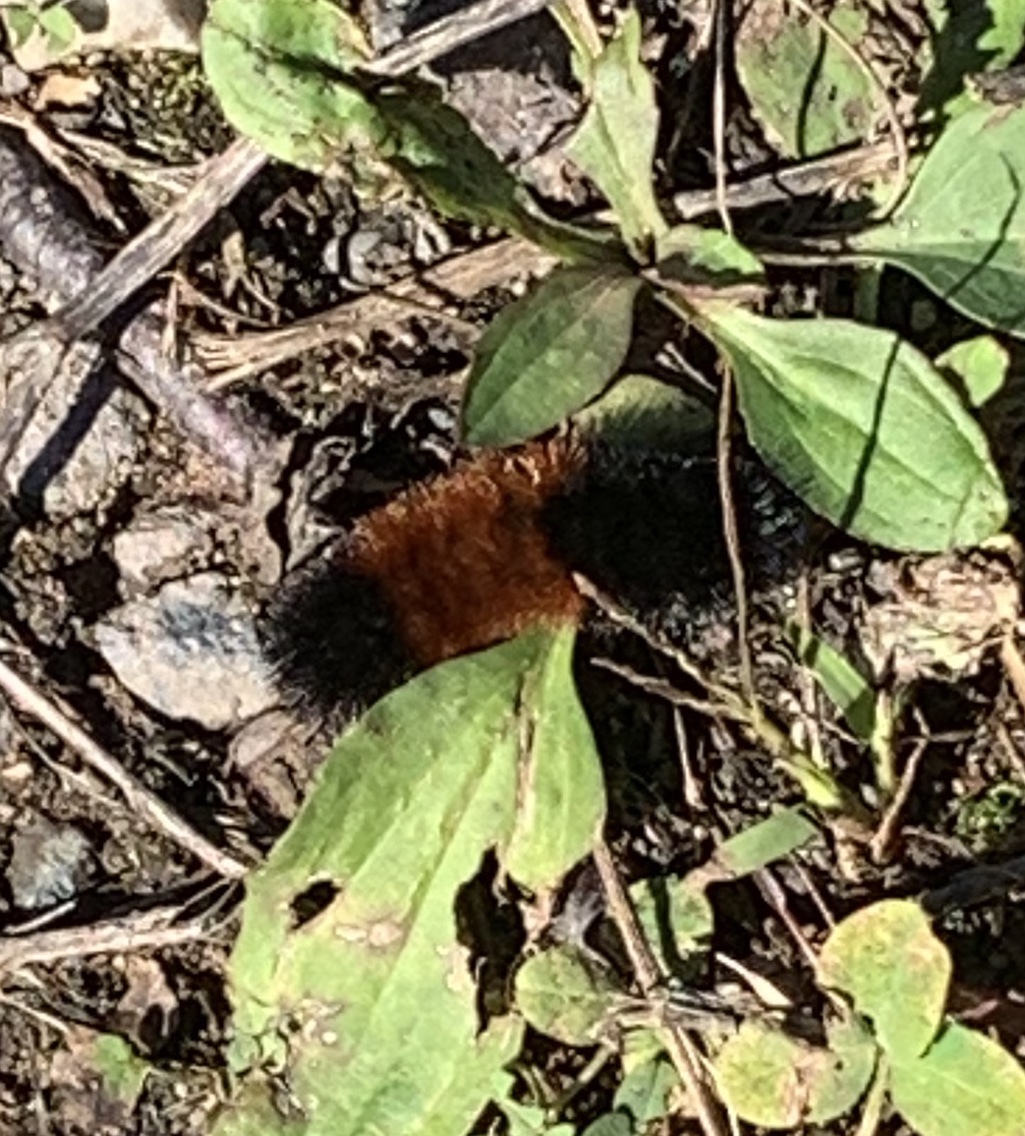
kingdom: Animalia
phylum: Arthropoda
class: Insecta
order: Lepidoptera
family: Erebidae
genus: Pyrrharctia
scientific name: Pyrrharctia isabella
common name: Isabella tiger moth
